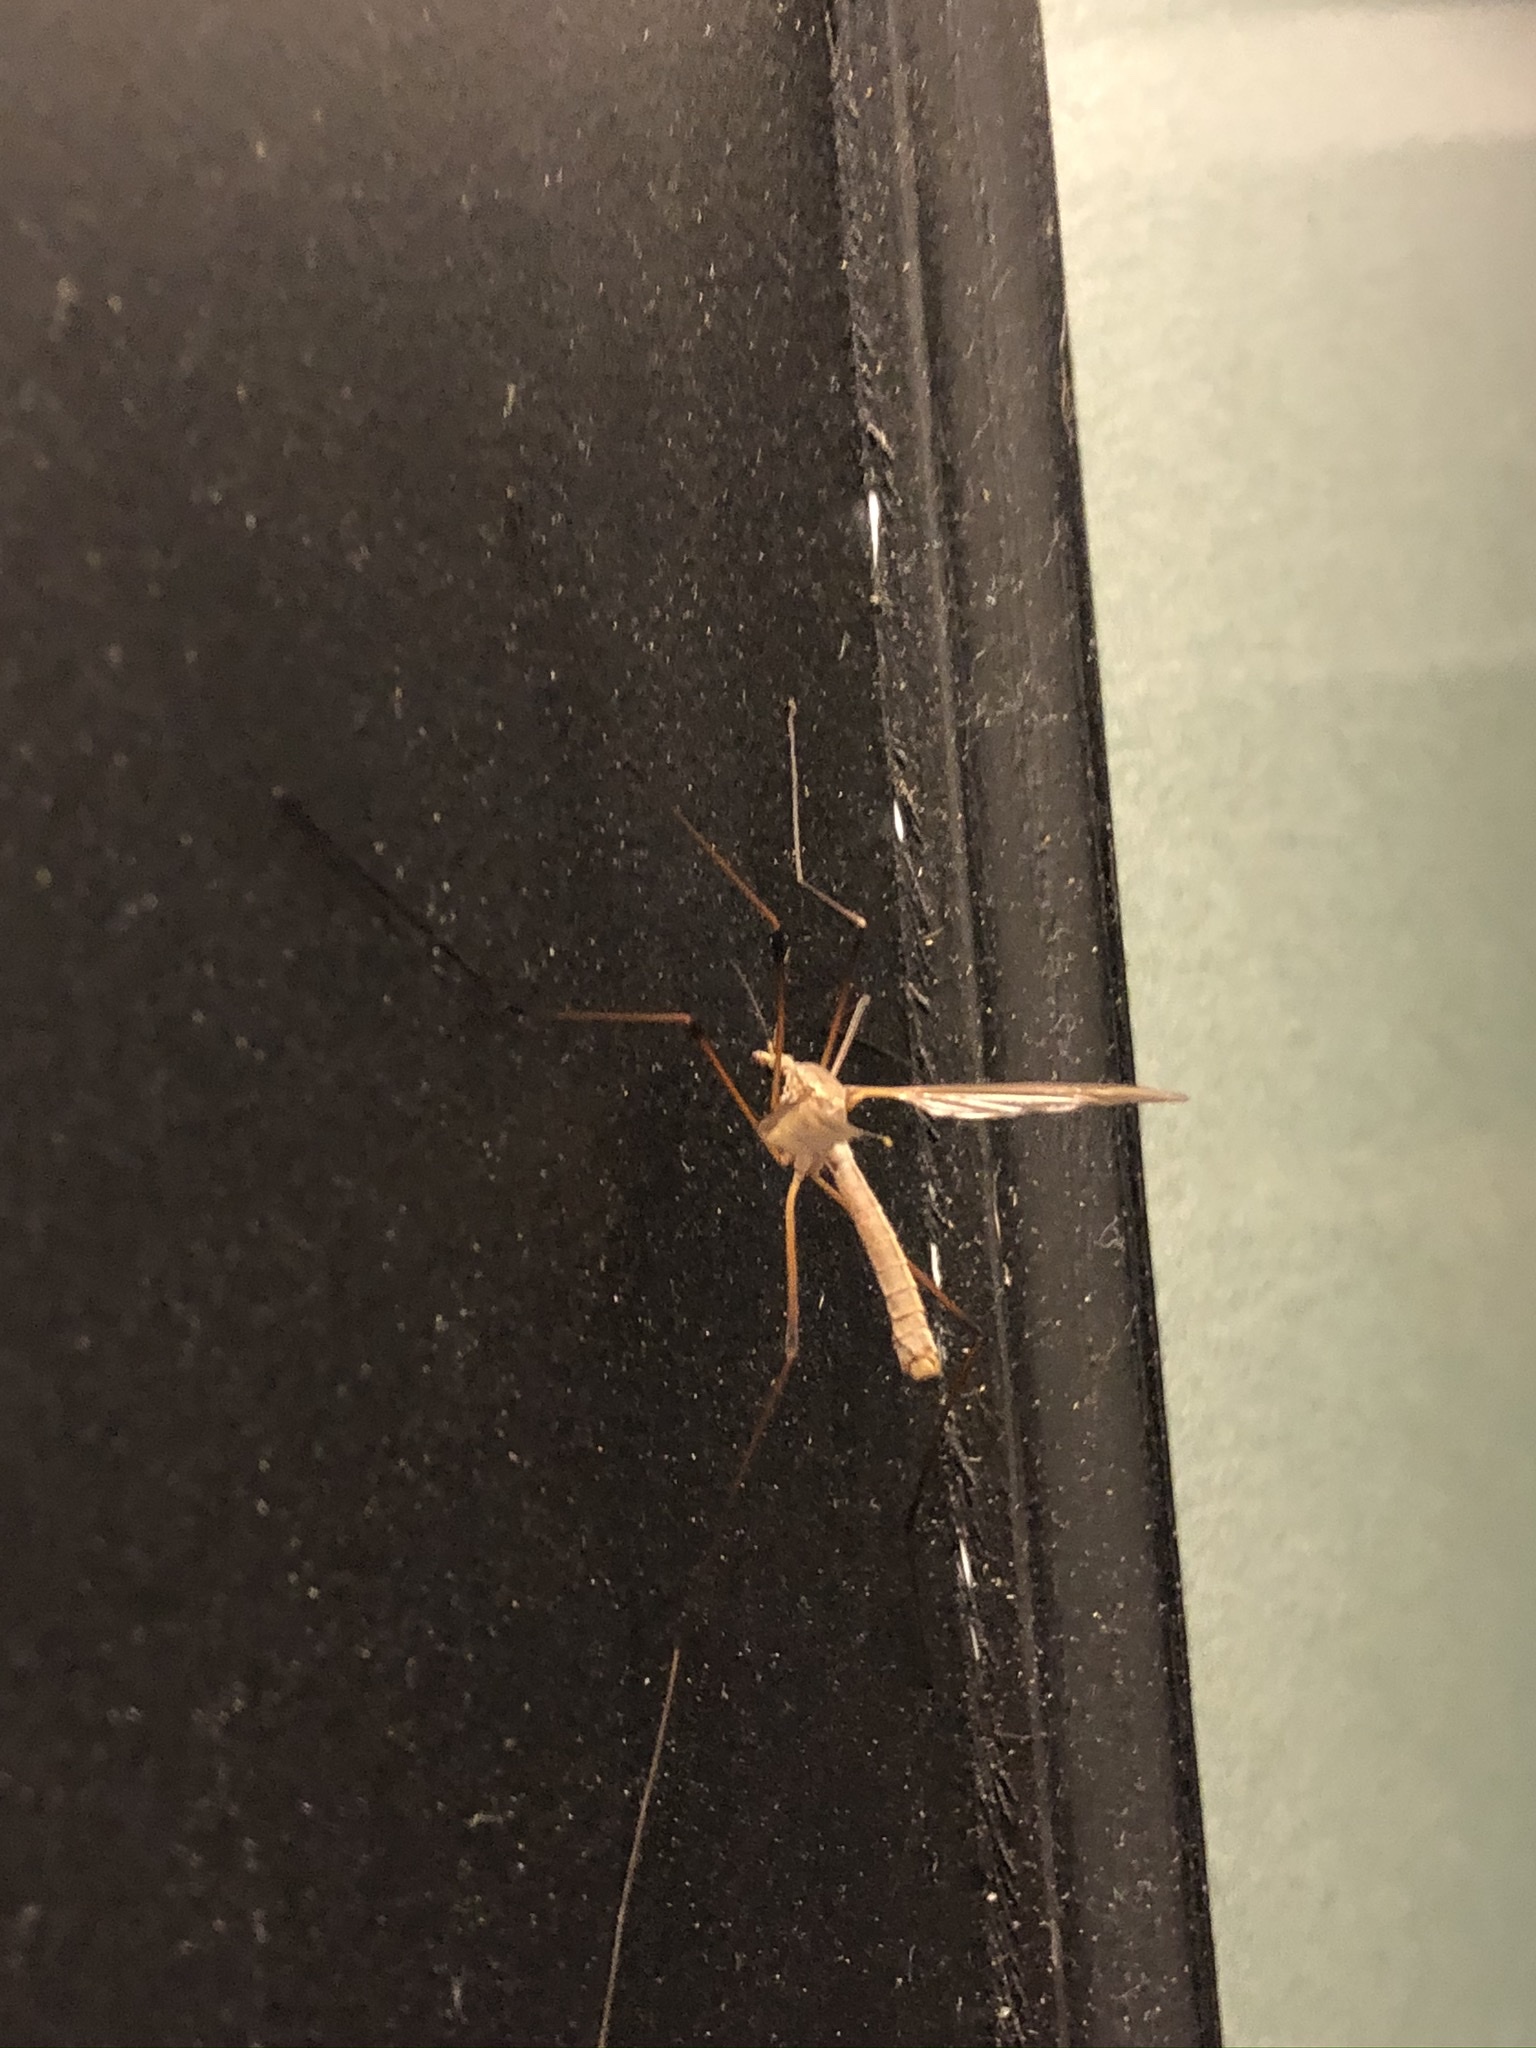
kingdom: Animalia
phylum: Arthropoda
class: Insecta
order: Diptera
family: Tipulidae
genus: Tipula
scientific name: Tipula
